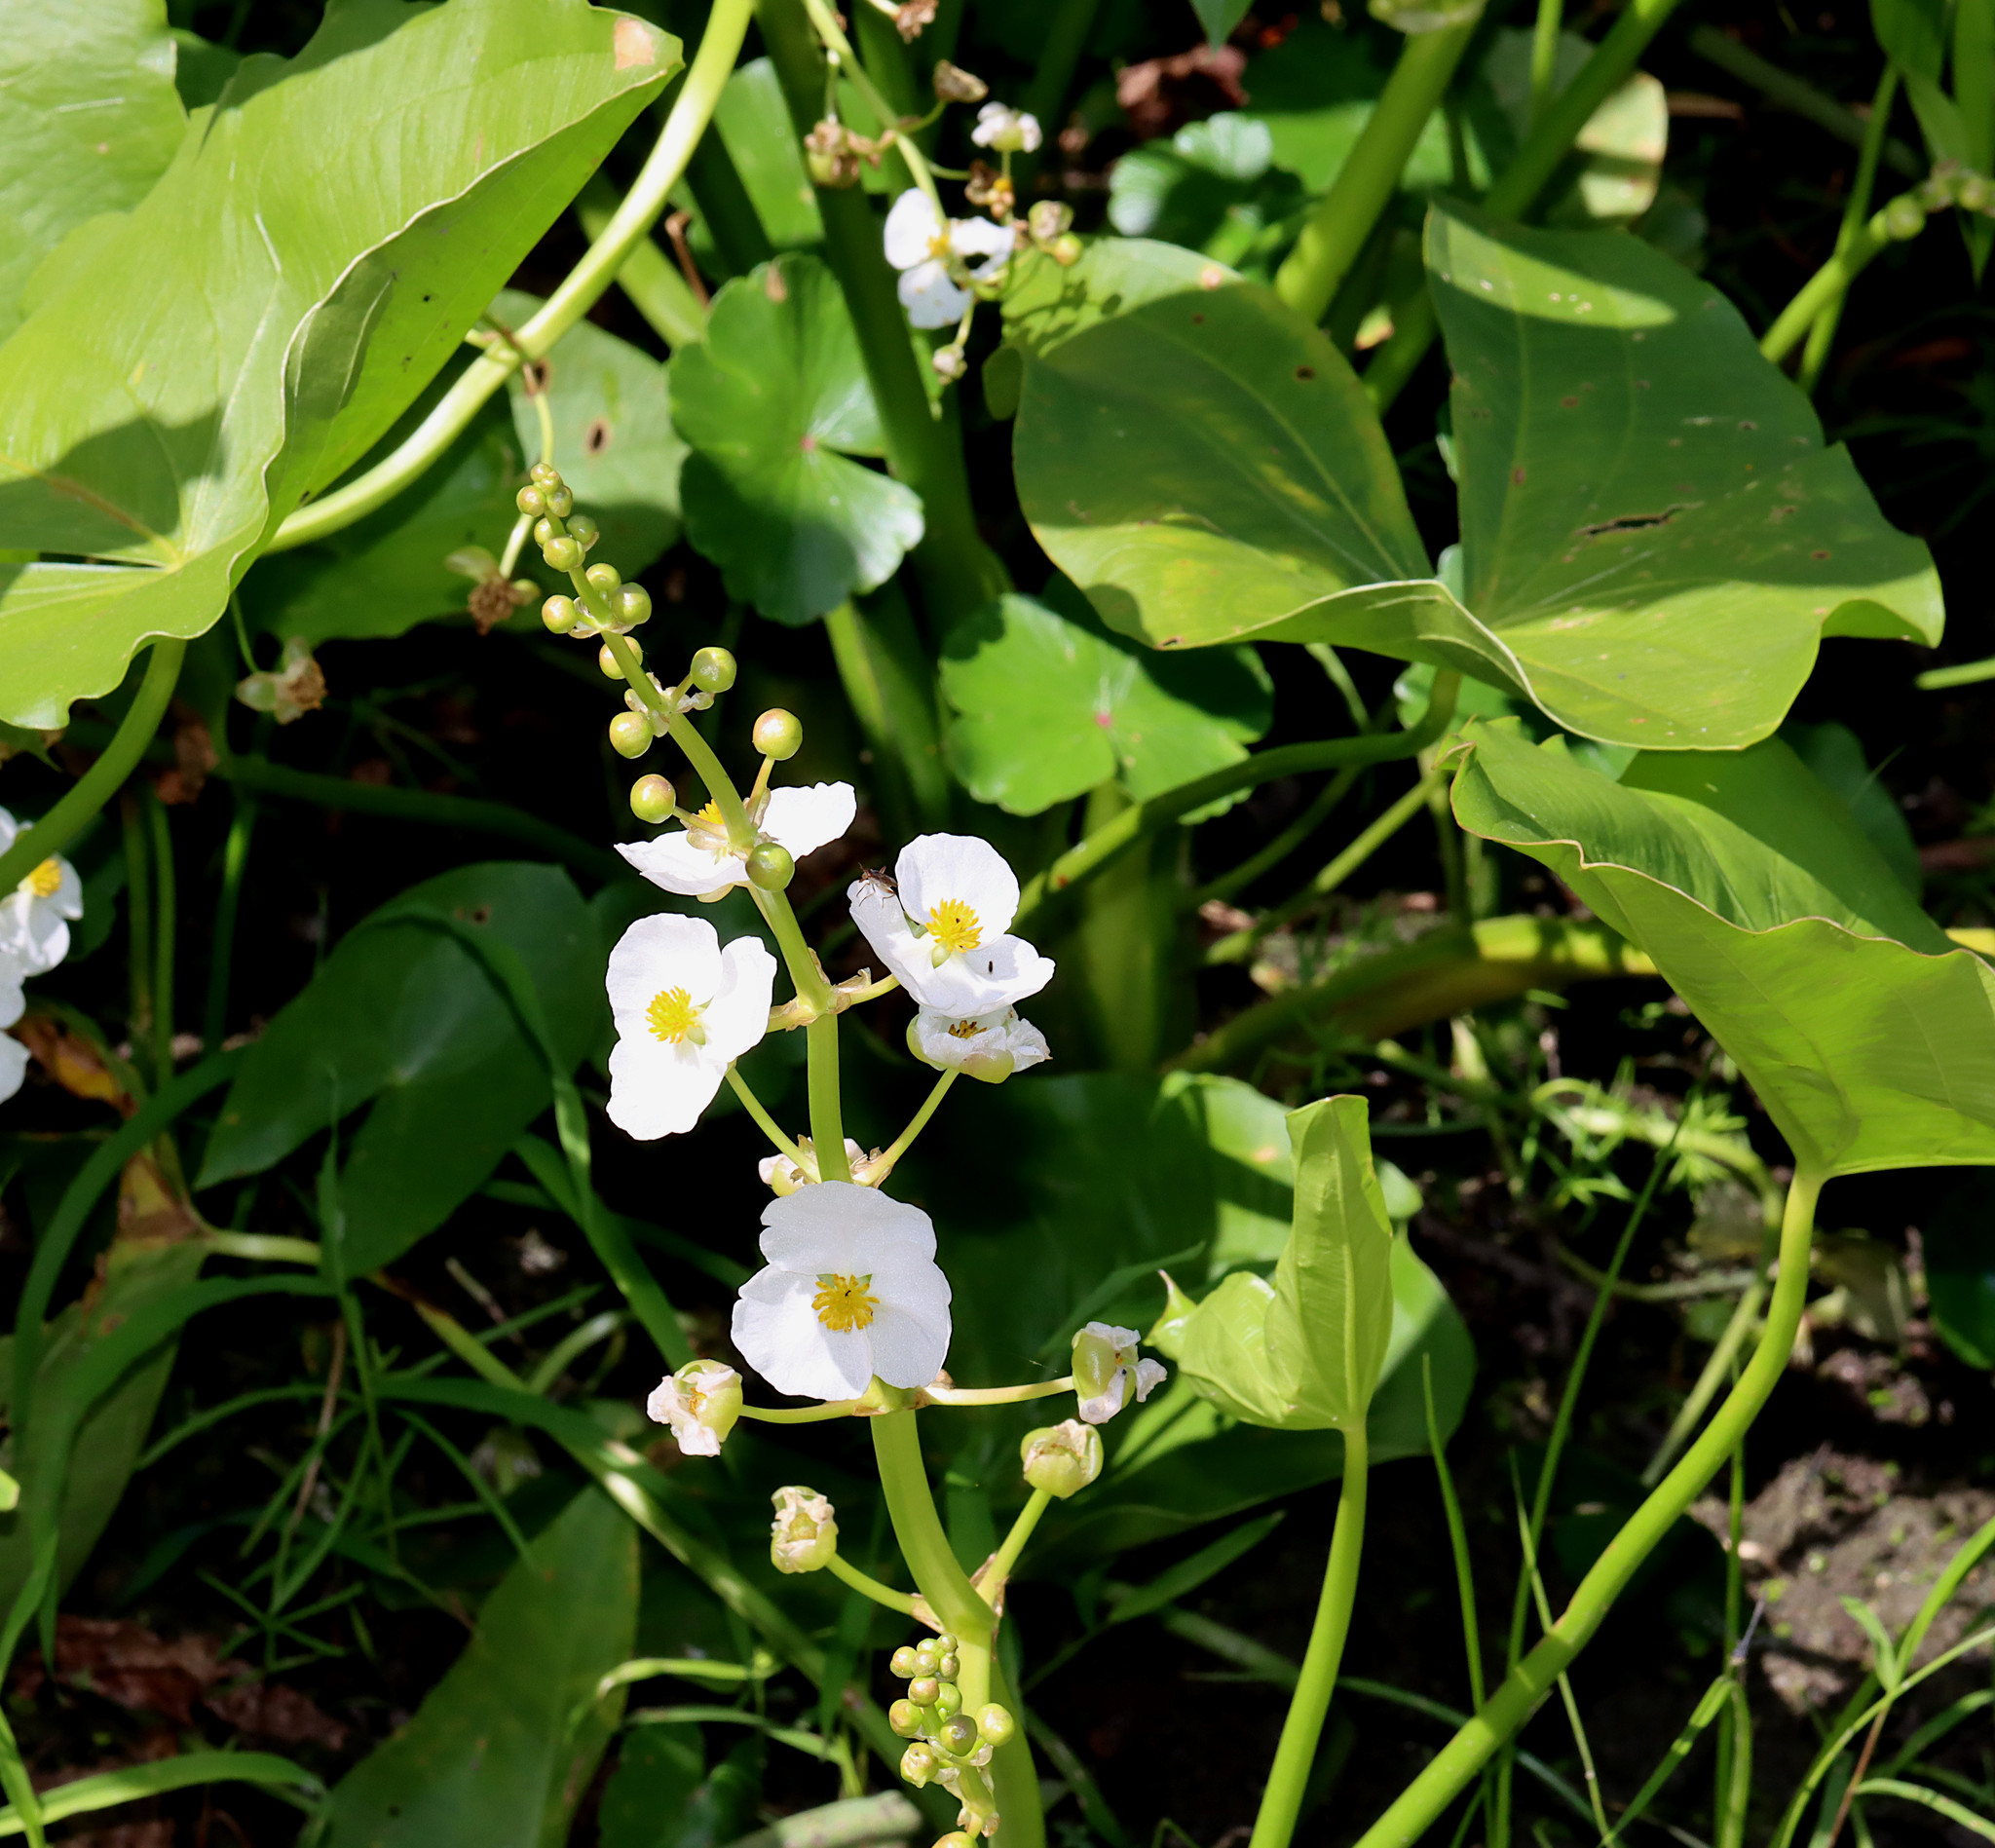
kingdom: Plantae
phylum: Tracheophyta
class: Liliopsida
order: Alismatales
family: Alismataceae
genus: Sagittaria
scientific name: Sagittaria latifolia
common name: Duck-potato
